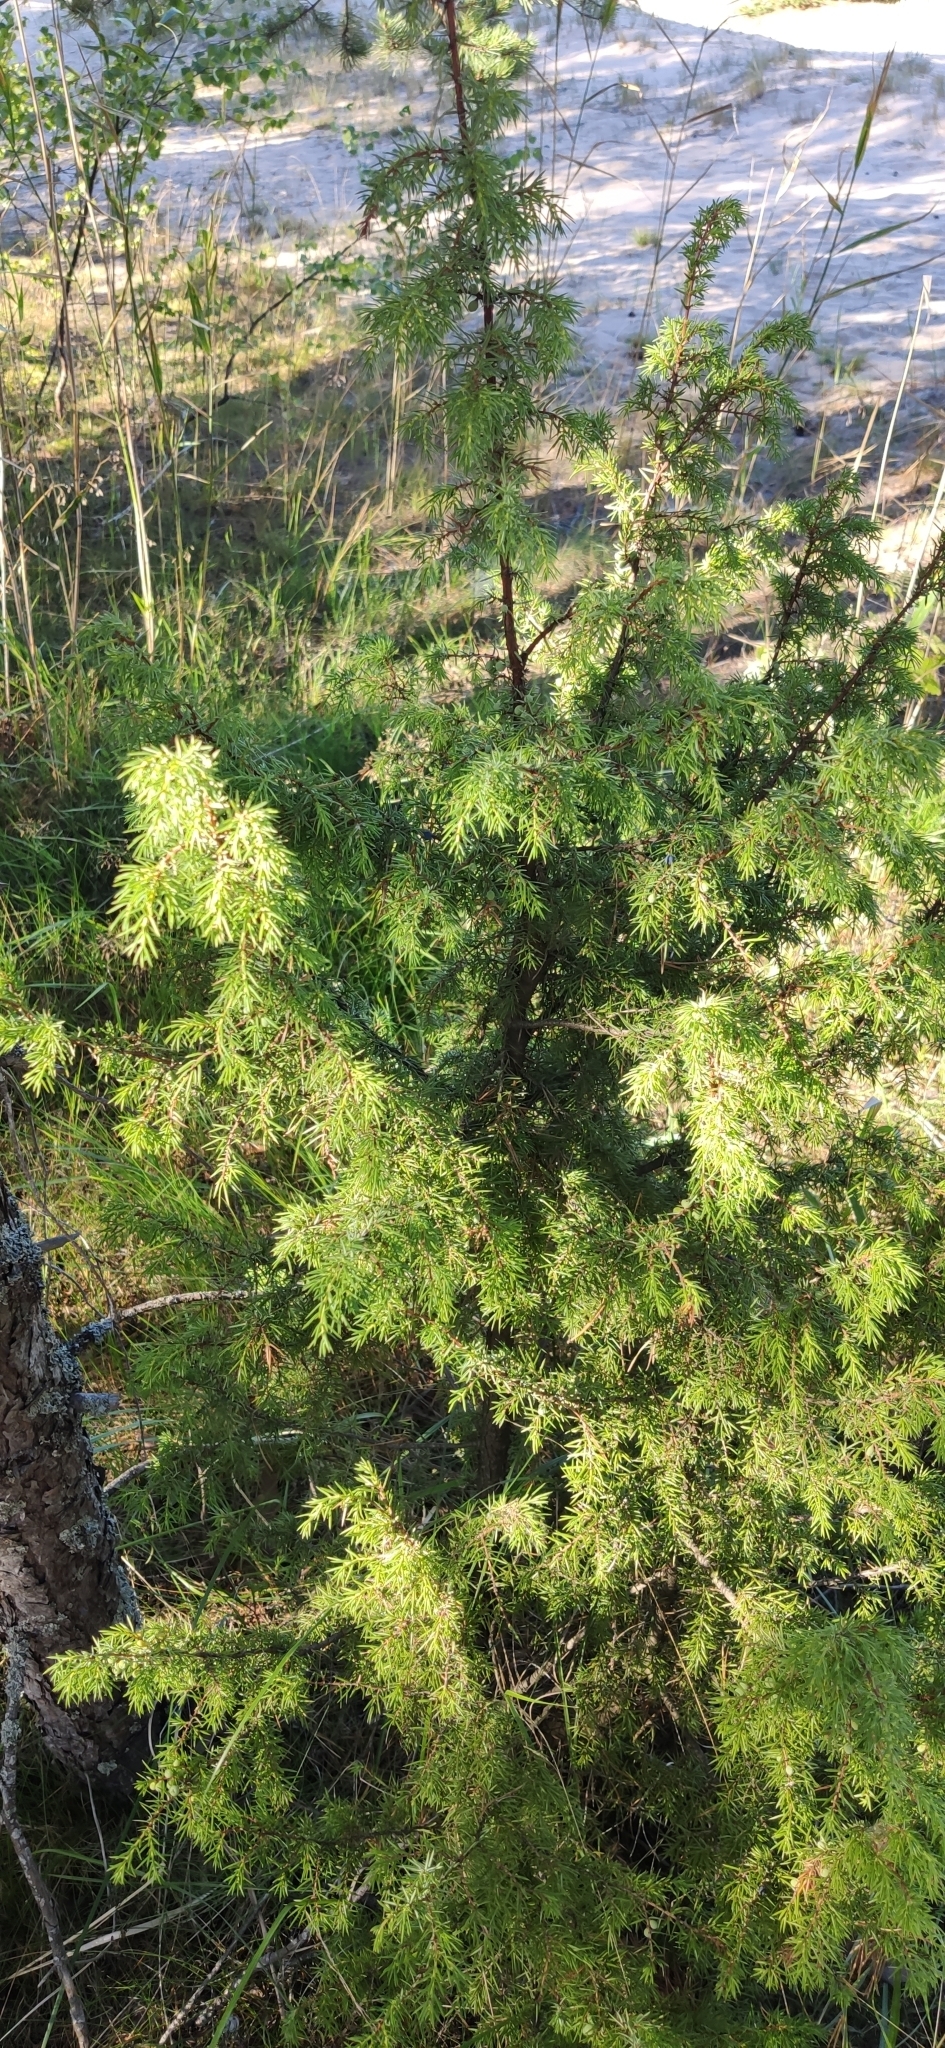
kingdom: Plantae
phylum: Tracheophyta
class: Pinopsida
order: Pinales
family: Cupressaceae
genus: Juniperus
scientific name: Juniperus communis
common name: Common juniper
